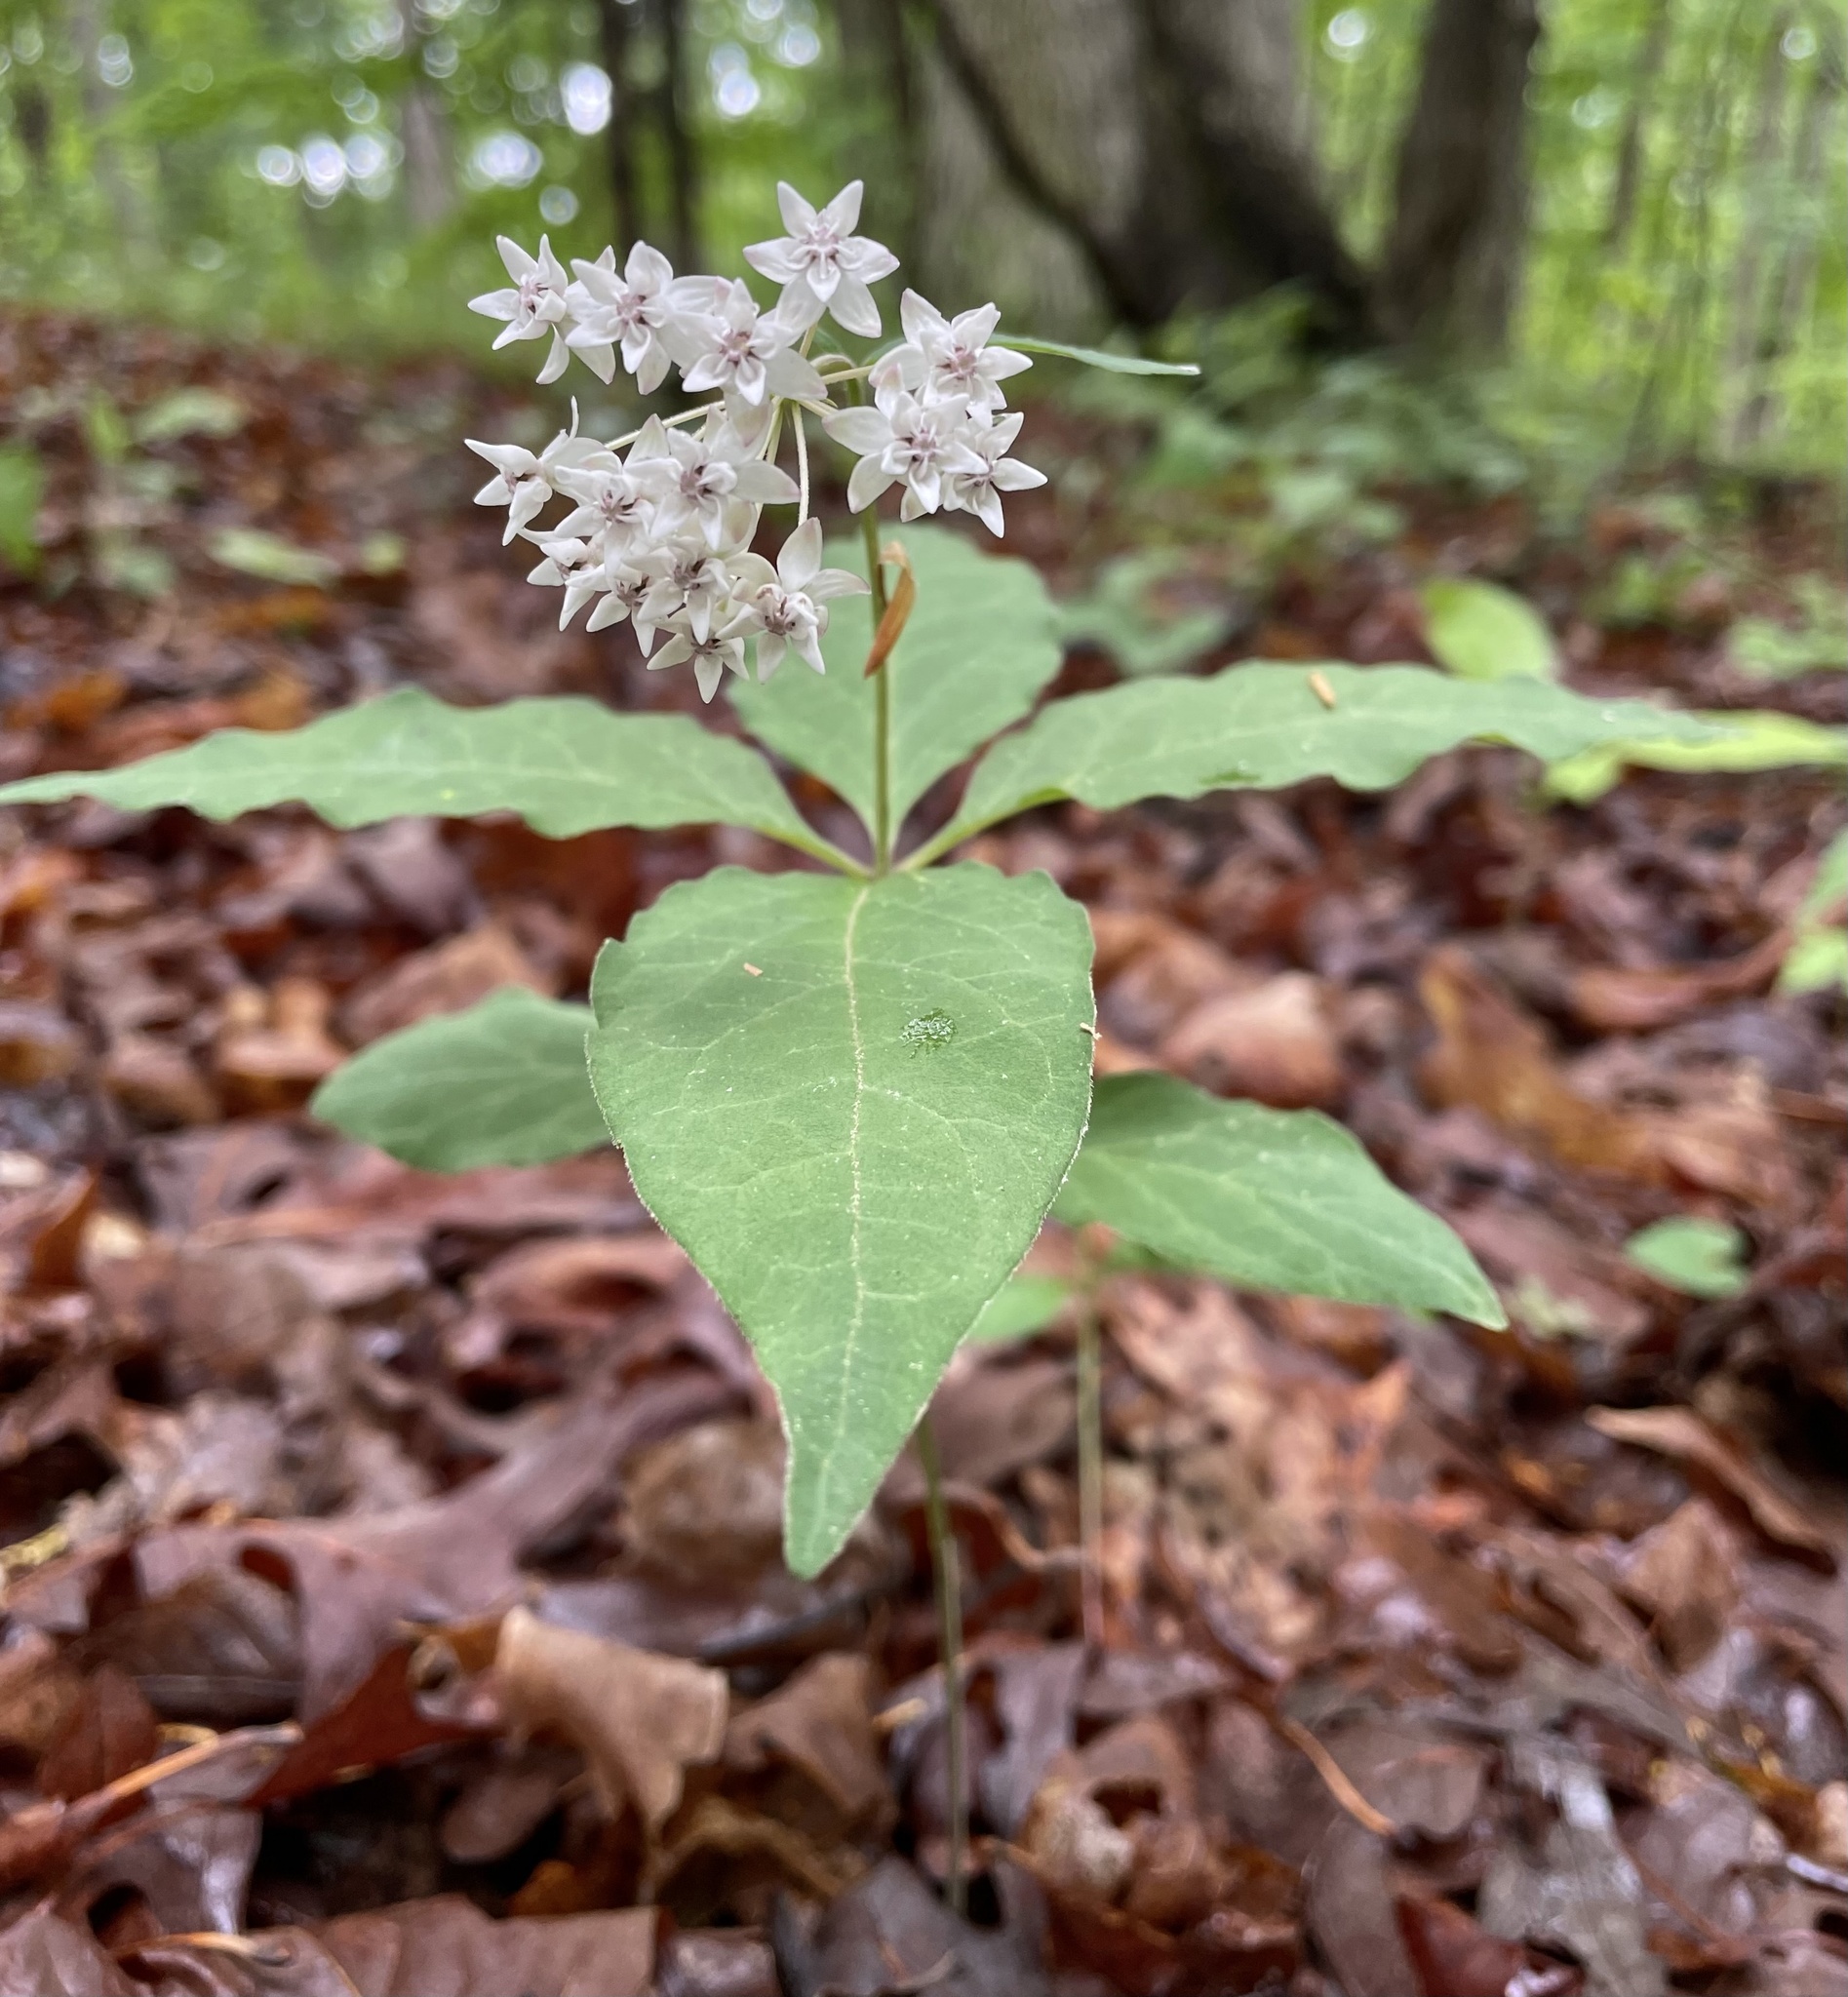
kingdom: Plantae
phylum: Tracheophyta
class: Magnoliopsida
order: Gentianales
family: Apocynaceae
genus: Asclepias
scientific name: Asclepias quadrifolia
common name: Whorled milkweed
